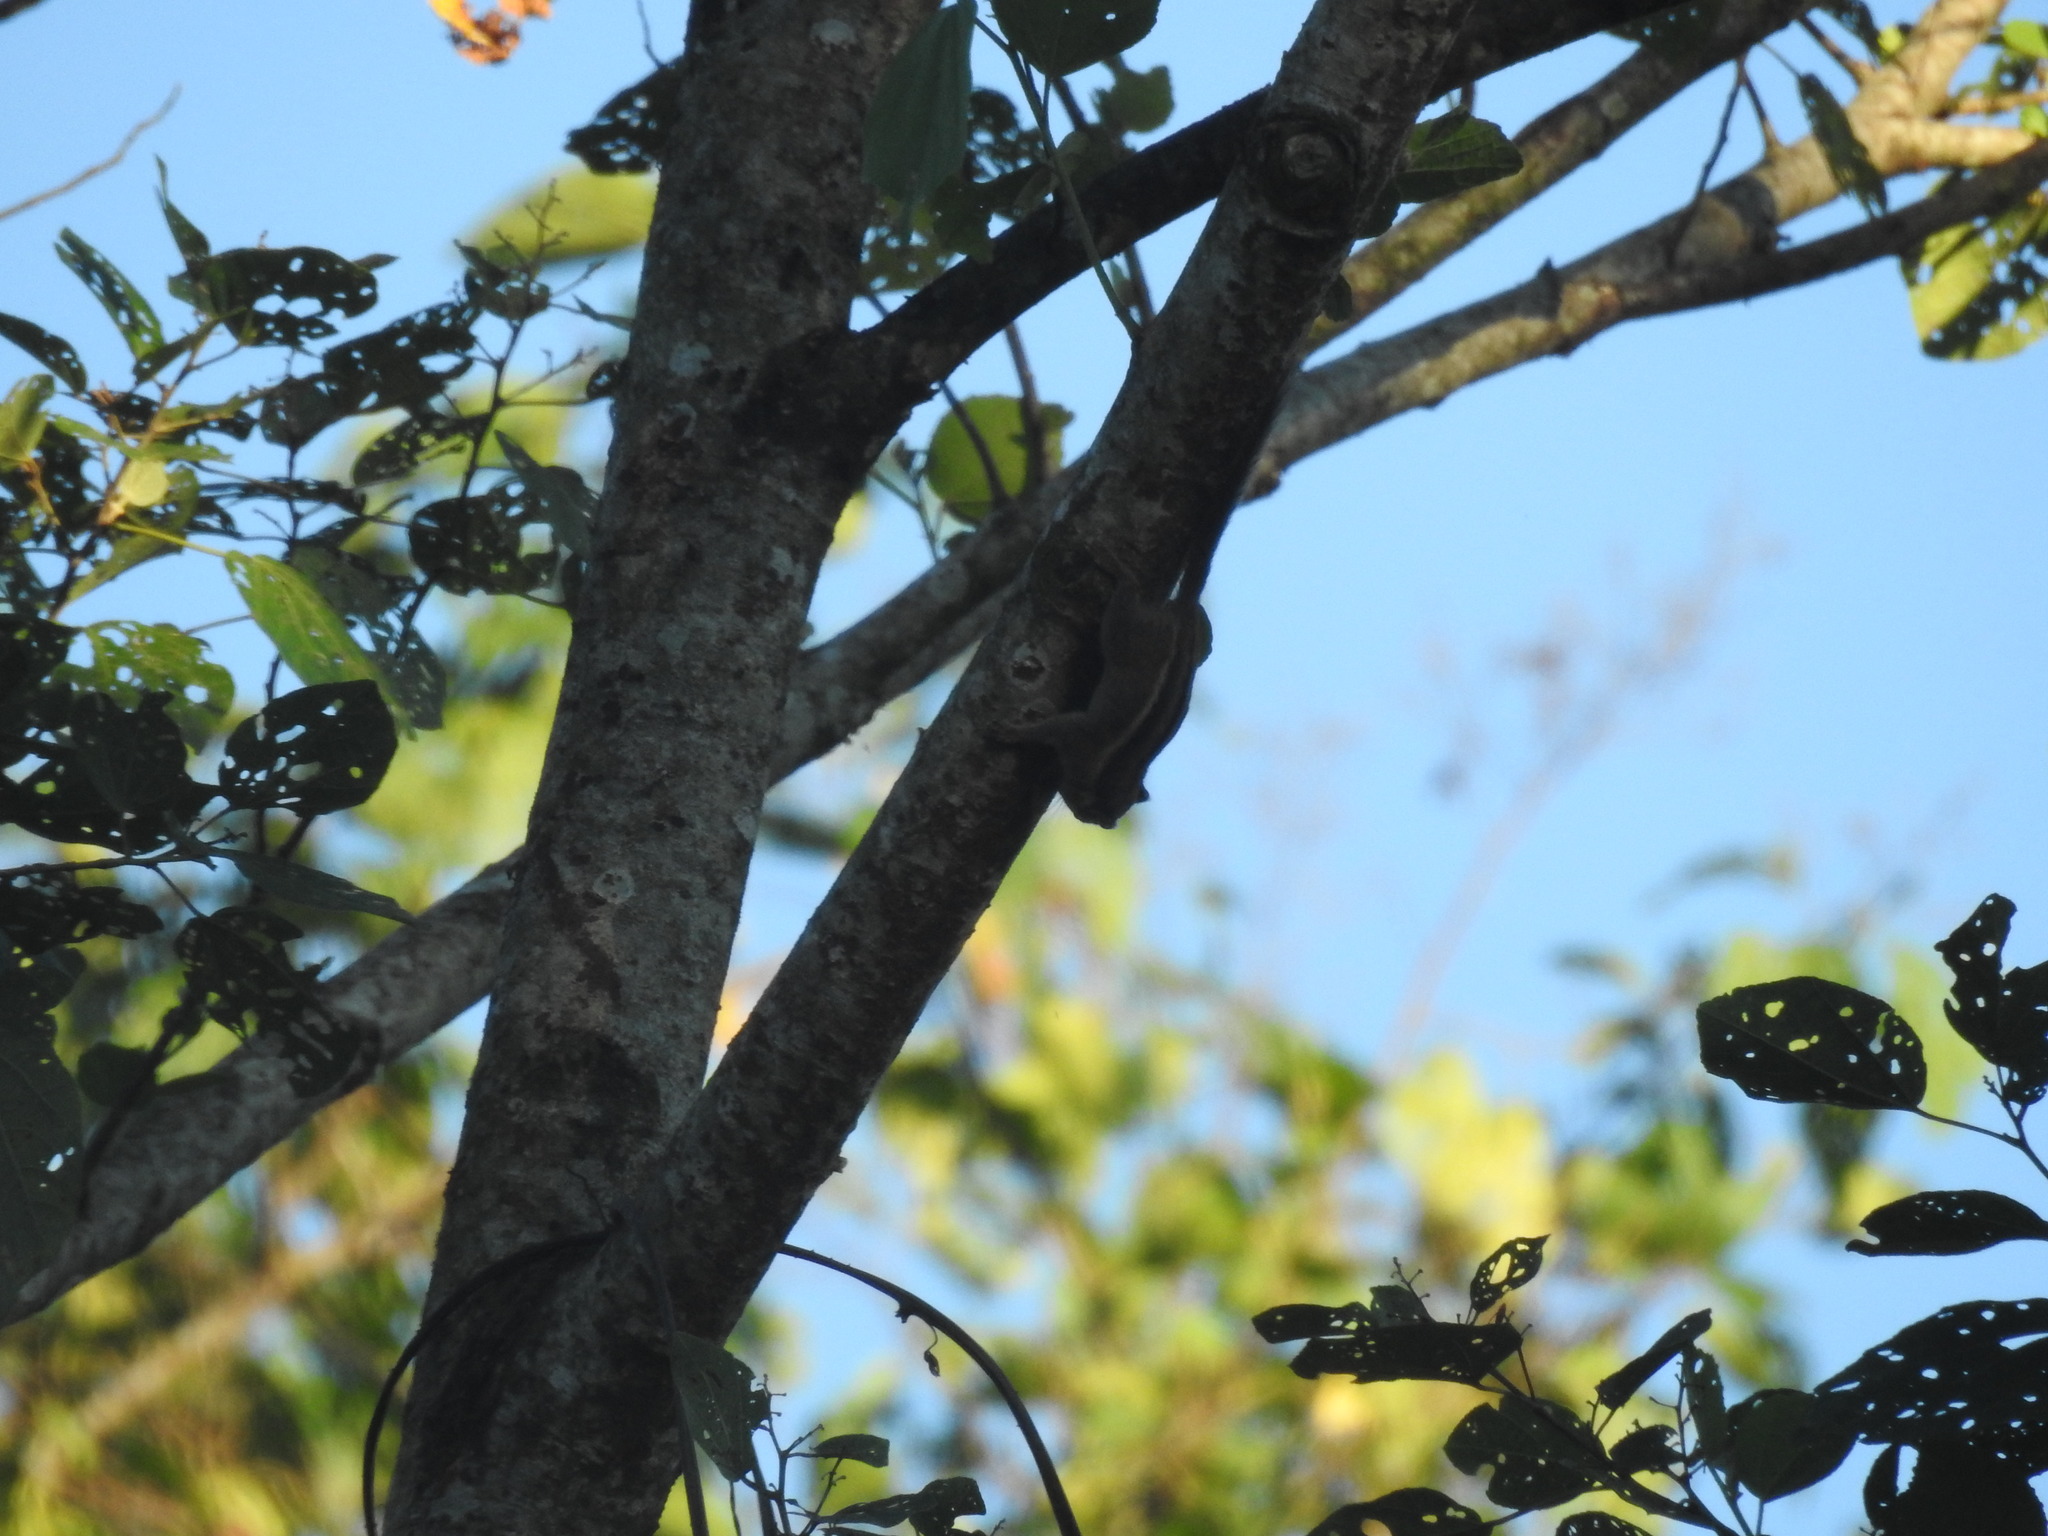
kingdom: Animalia
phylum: Chordata
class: Mammalia
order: Rodentia
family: Sciuridae
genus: Tamiops
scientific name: Tamiops mcclellandii
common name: Himalayan striped squirrel
